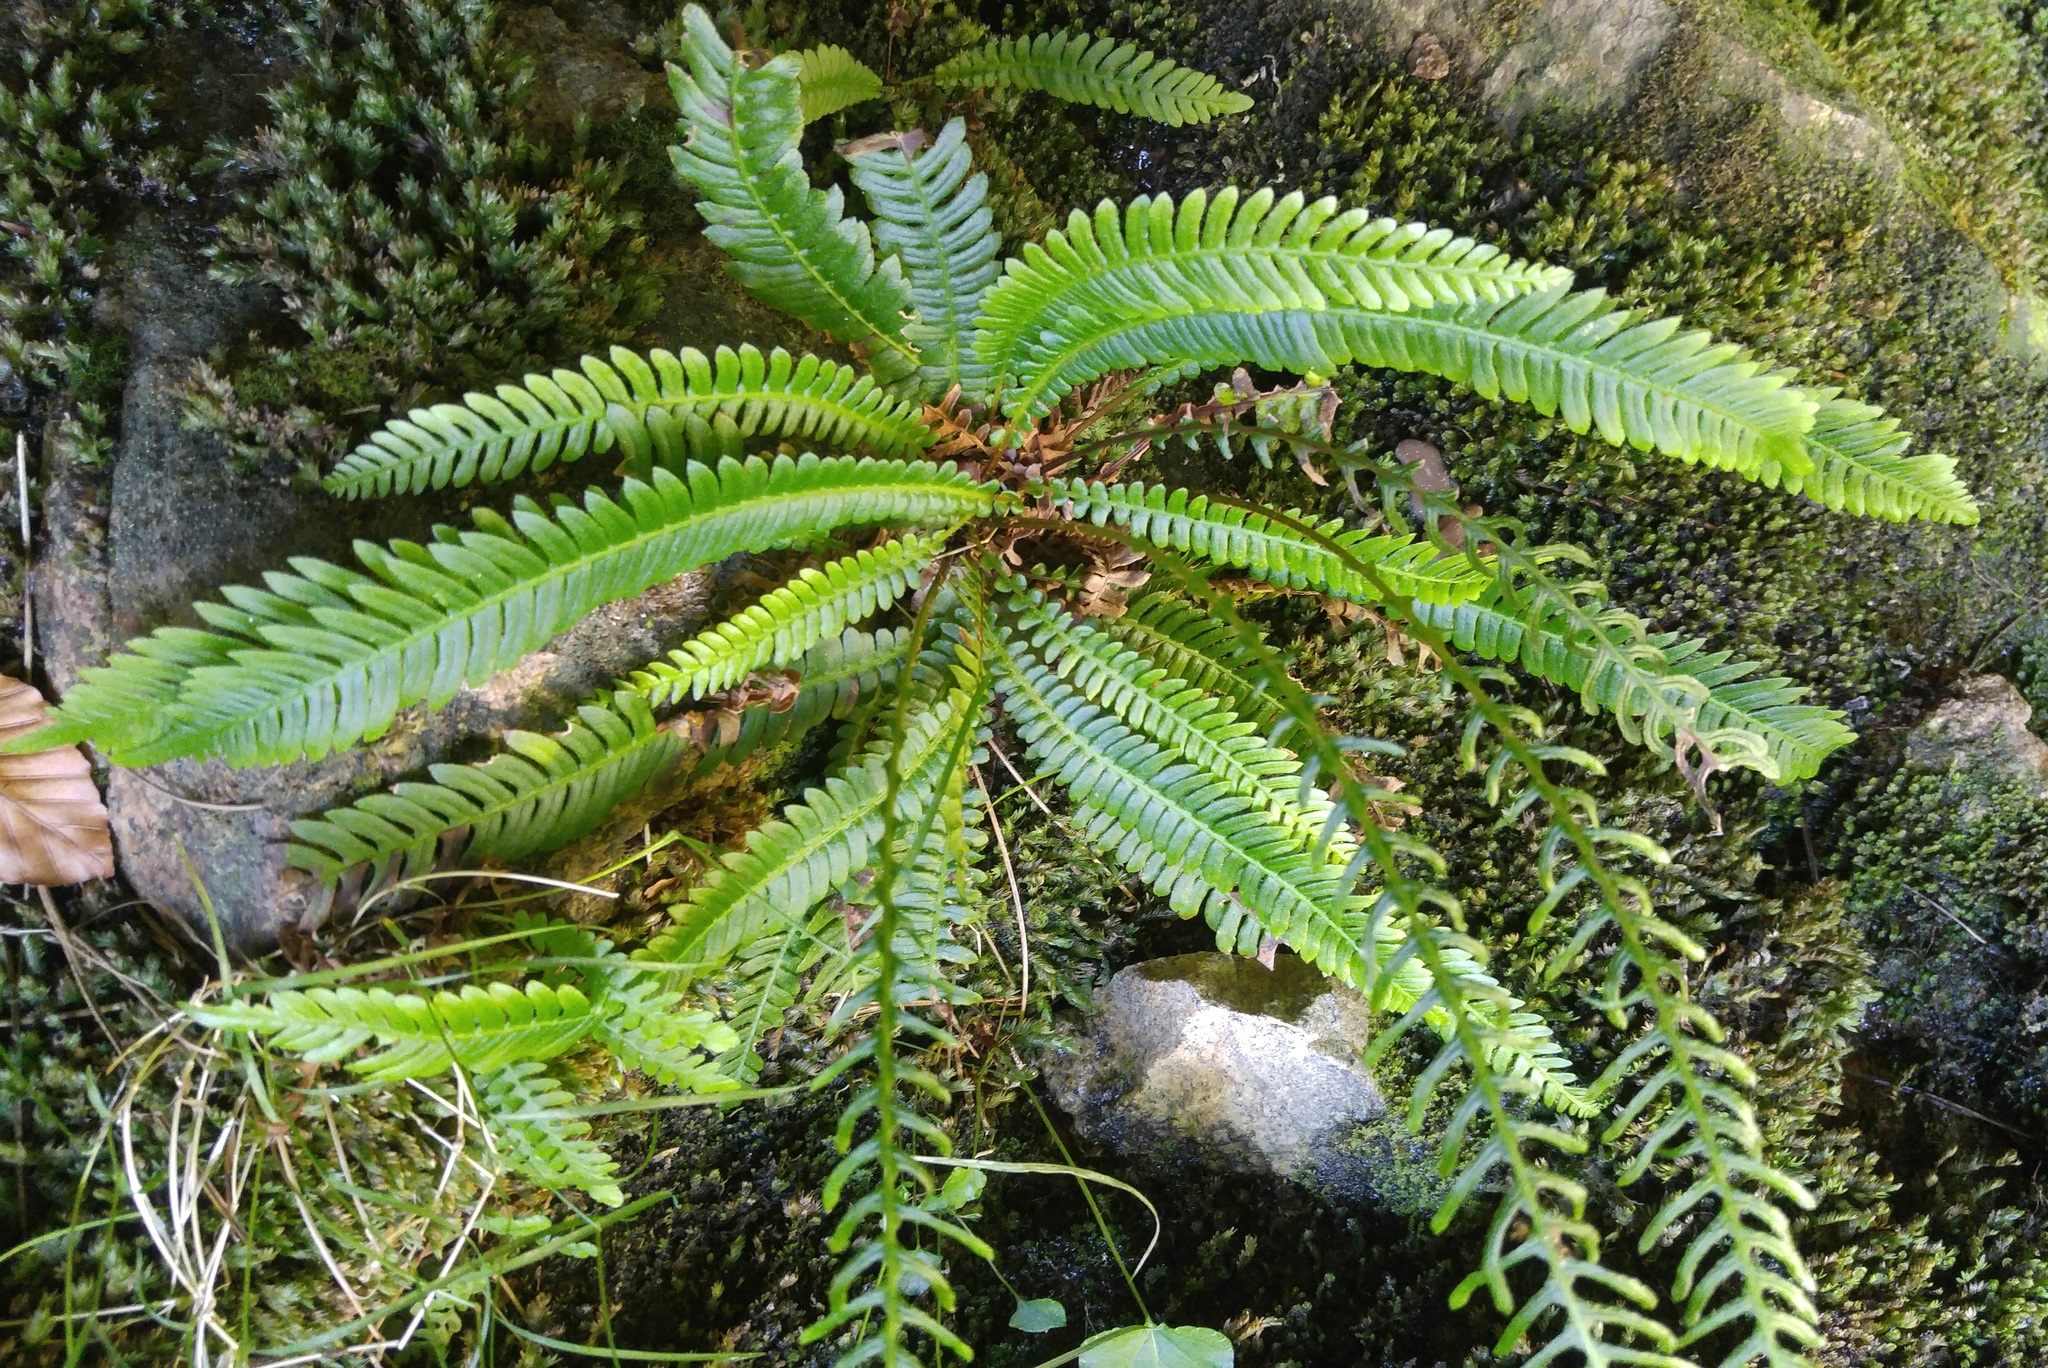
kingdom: Plantae
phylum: Tracheophyta
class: Polypodiopsida
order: Polypodiales
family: Blechnaceae
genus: Struthiopteris
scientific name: Struthiopteris spicant
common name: Deer fern
